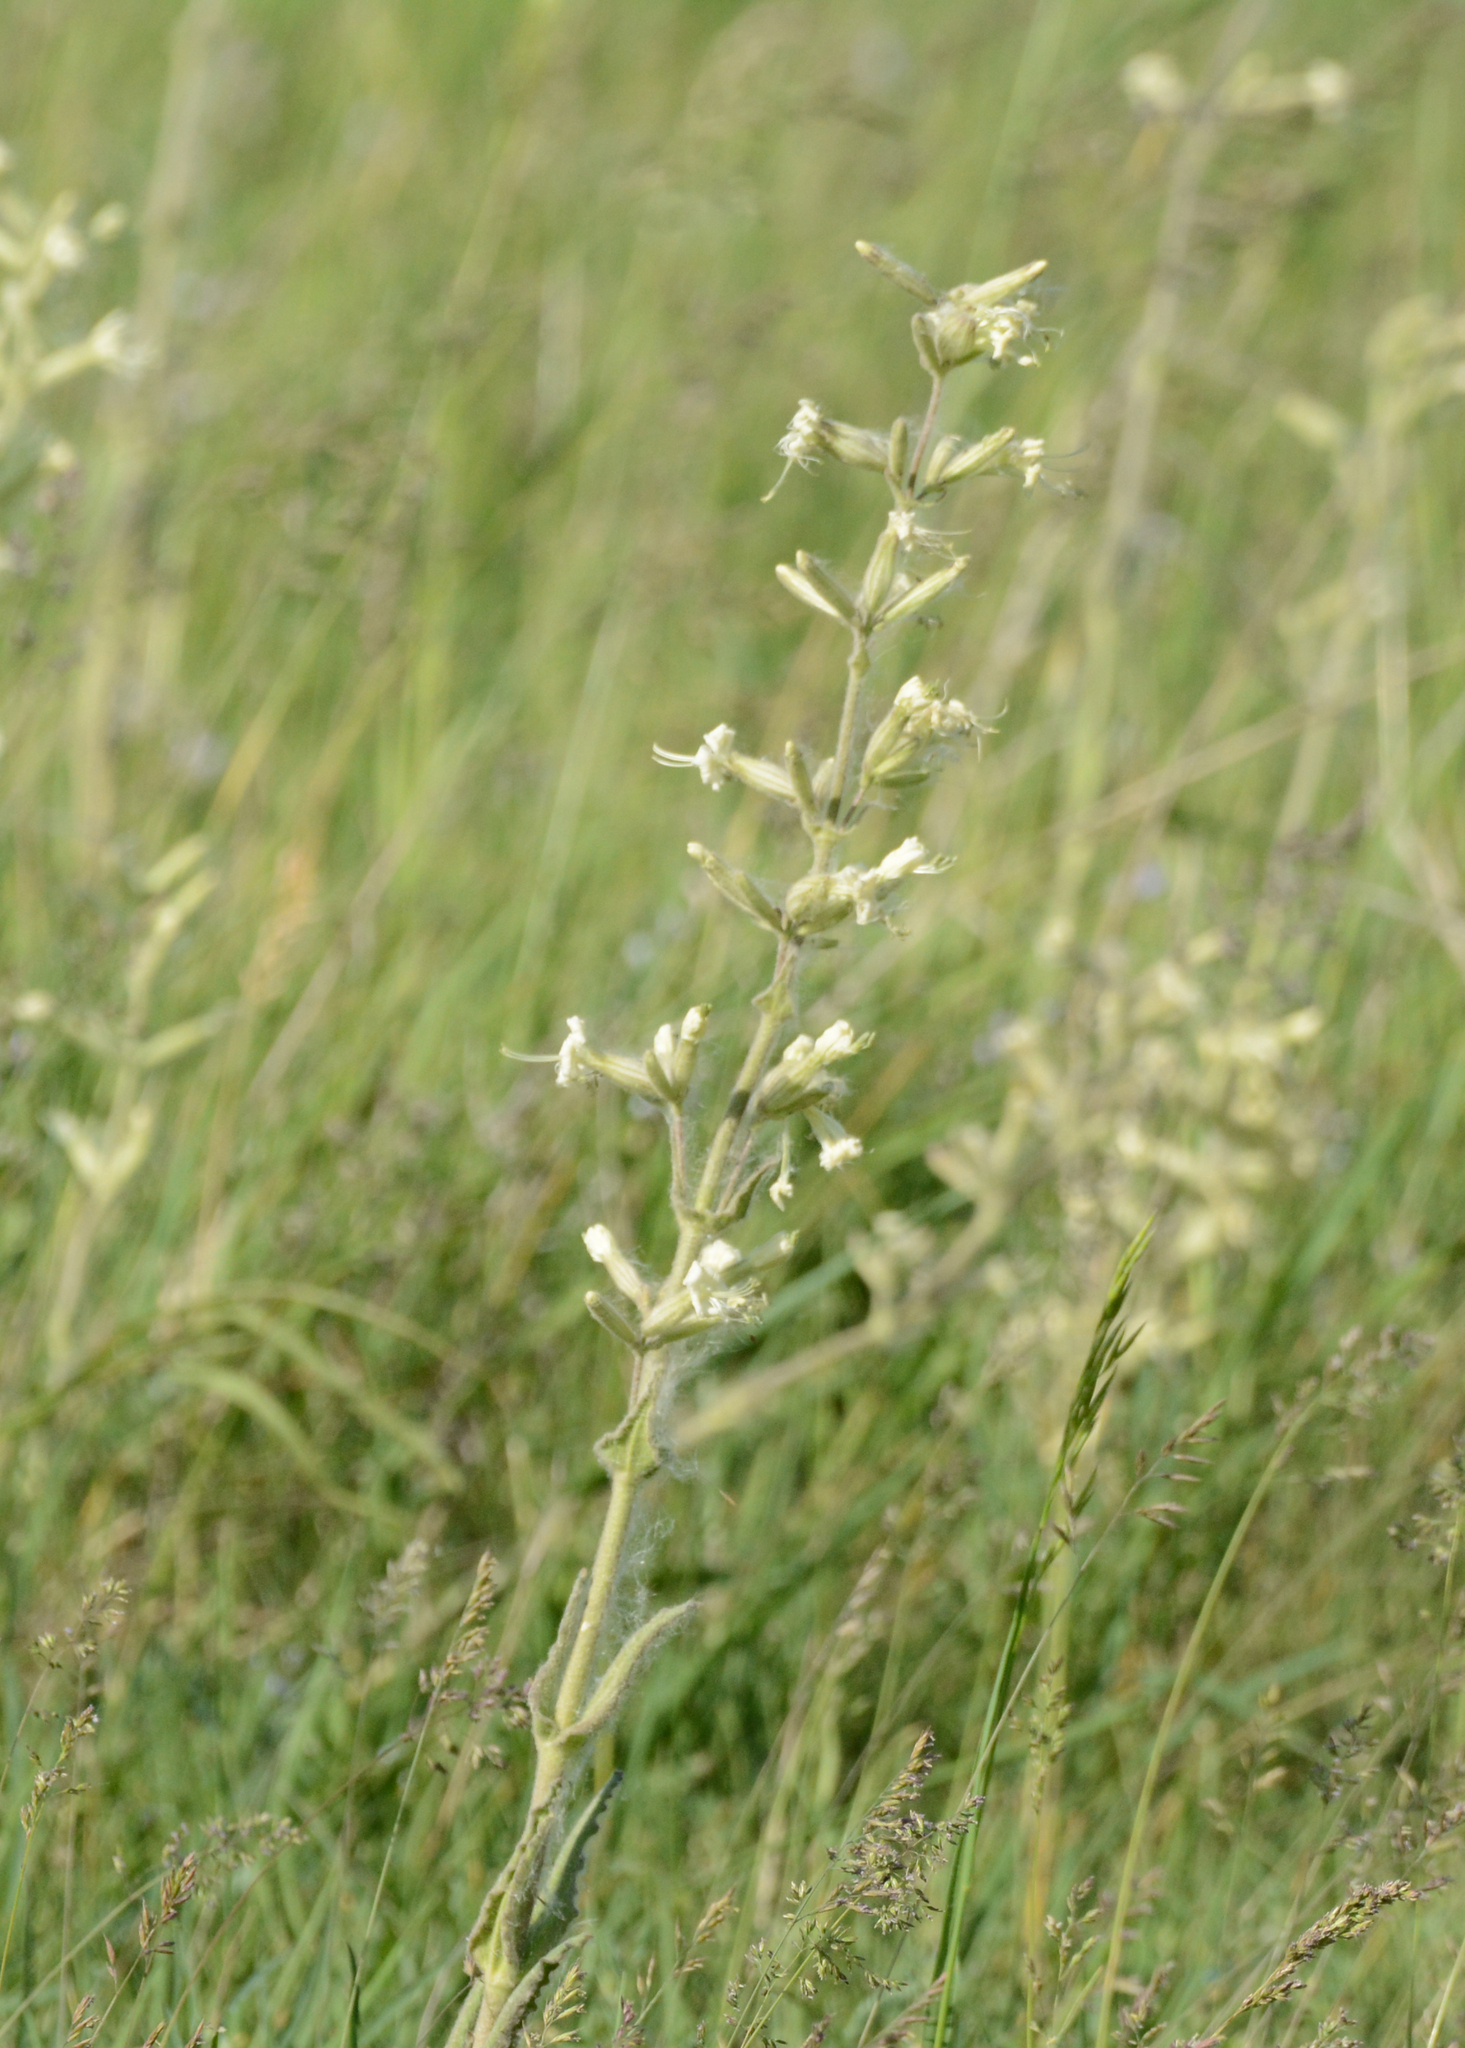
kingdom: Plantae
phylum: Tracheophyta
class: Magnoliopsida
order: Caryophyllales
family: Caryophyllaceae
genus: Silene
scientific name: Silene viscosa
